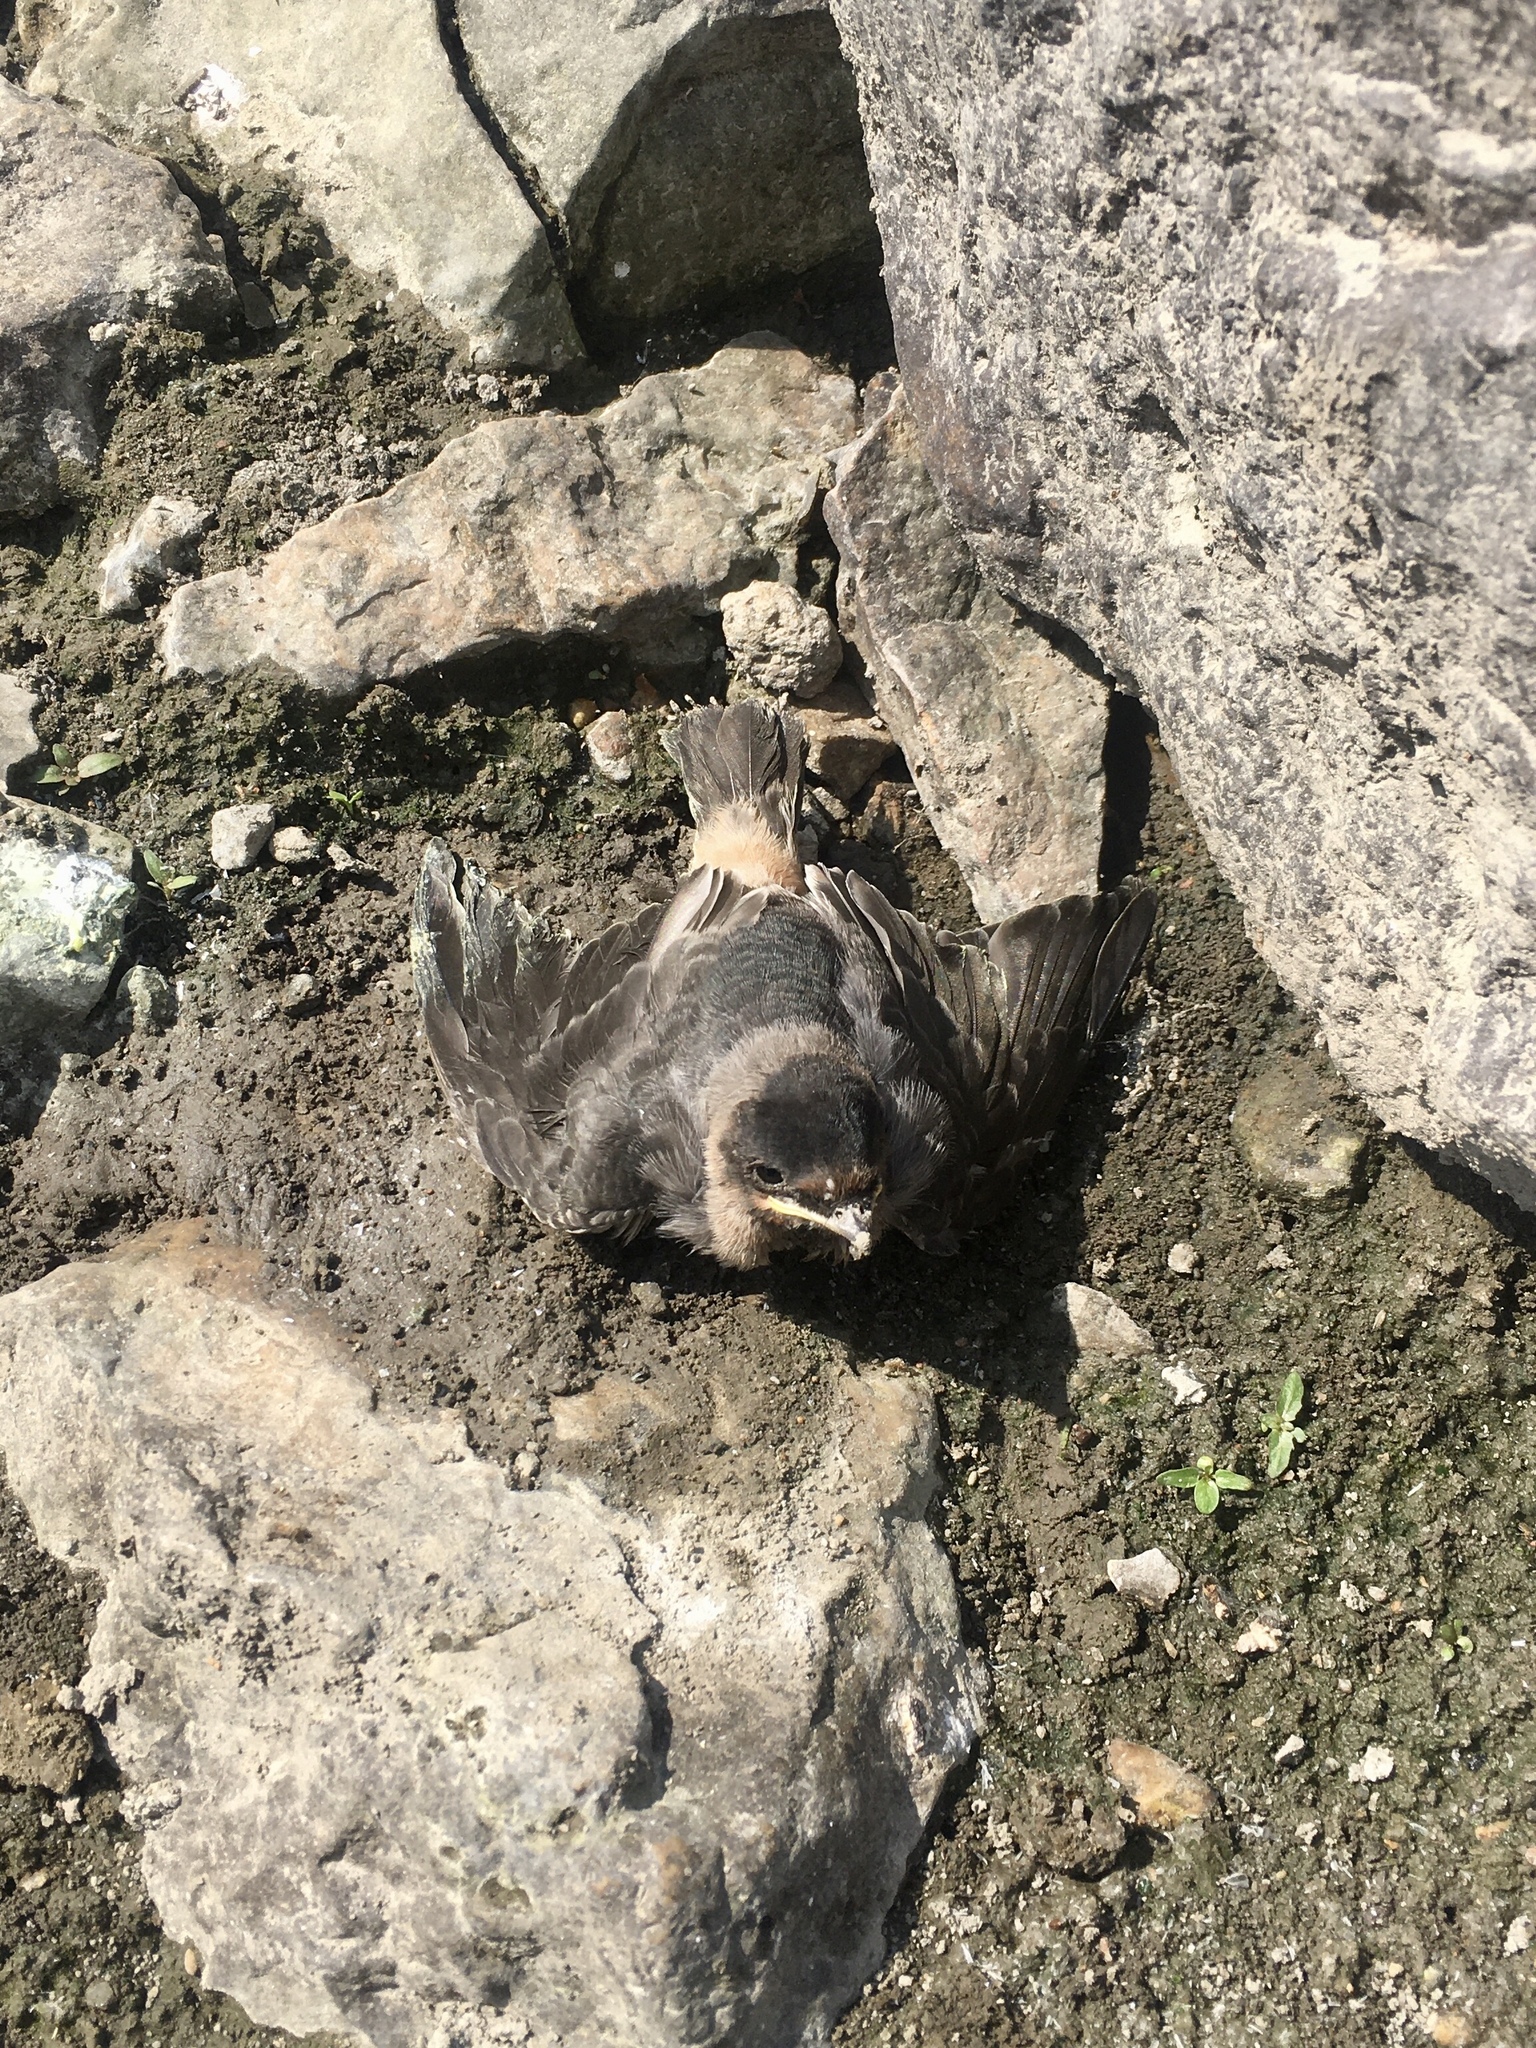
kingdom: Animalia
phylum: Chordata
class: Aves
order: Passeriformes
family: Hirundinidae
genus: Petrochelidon
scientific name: Petrochelidon pyrrhonota
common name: American cliff swallow
